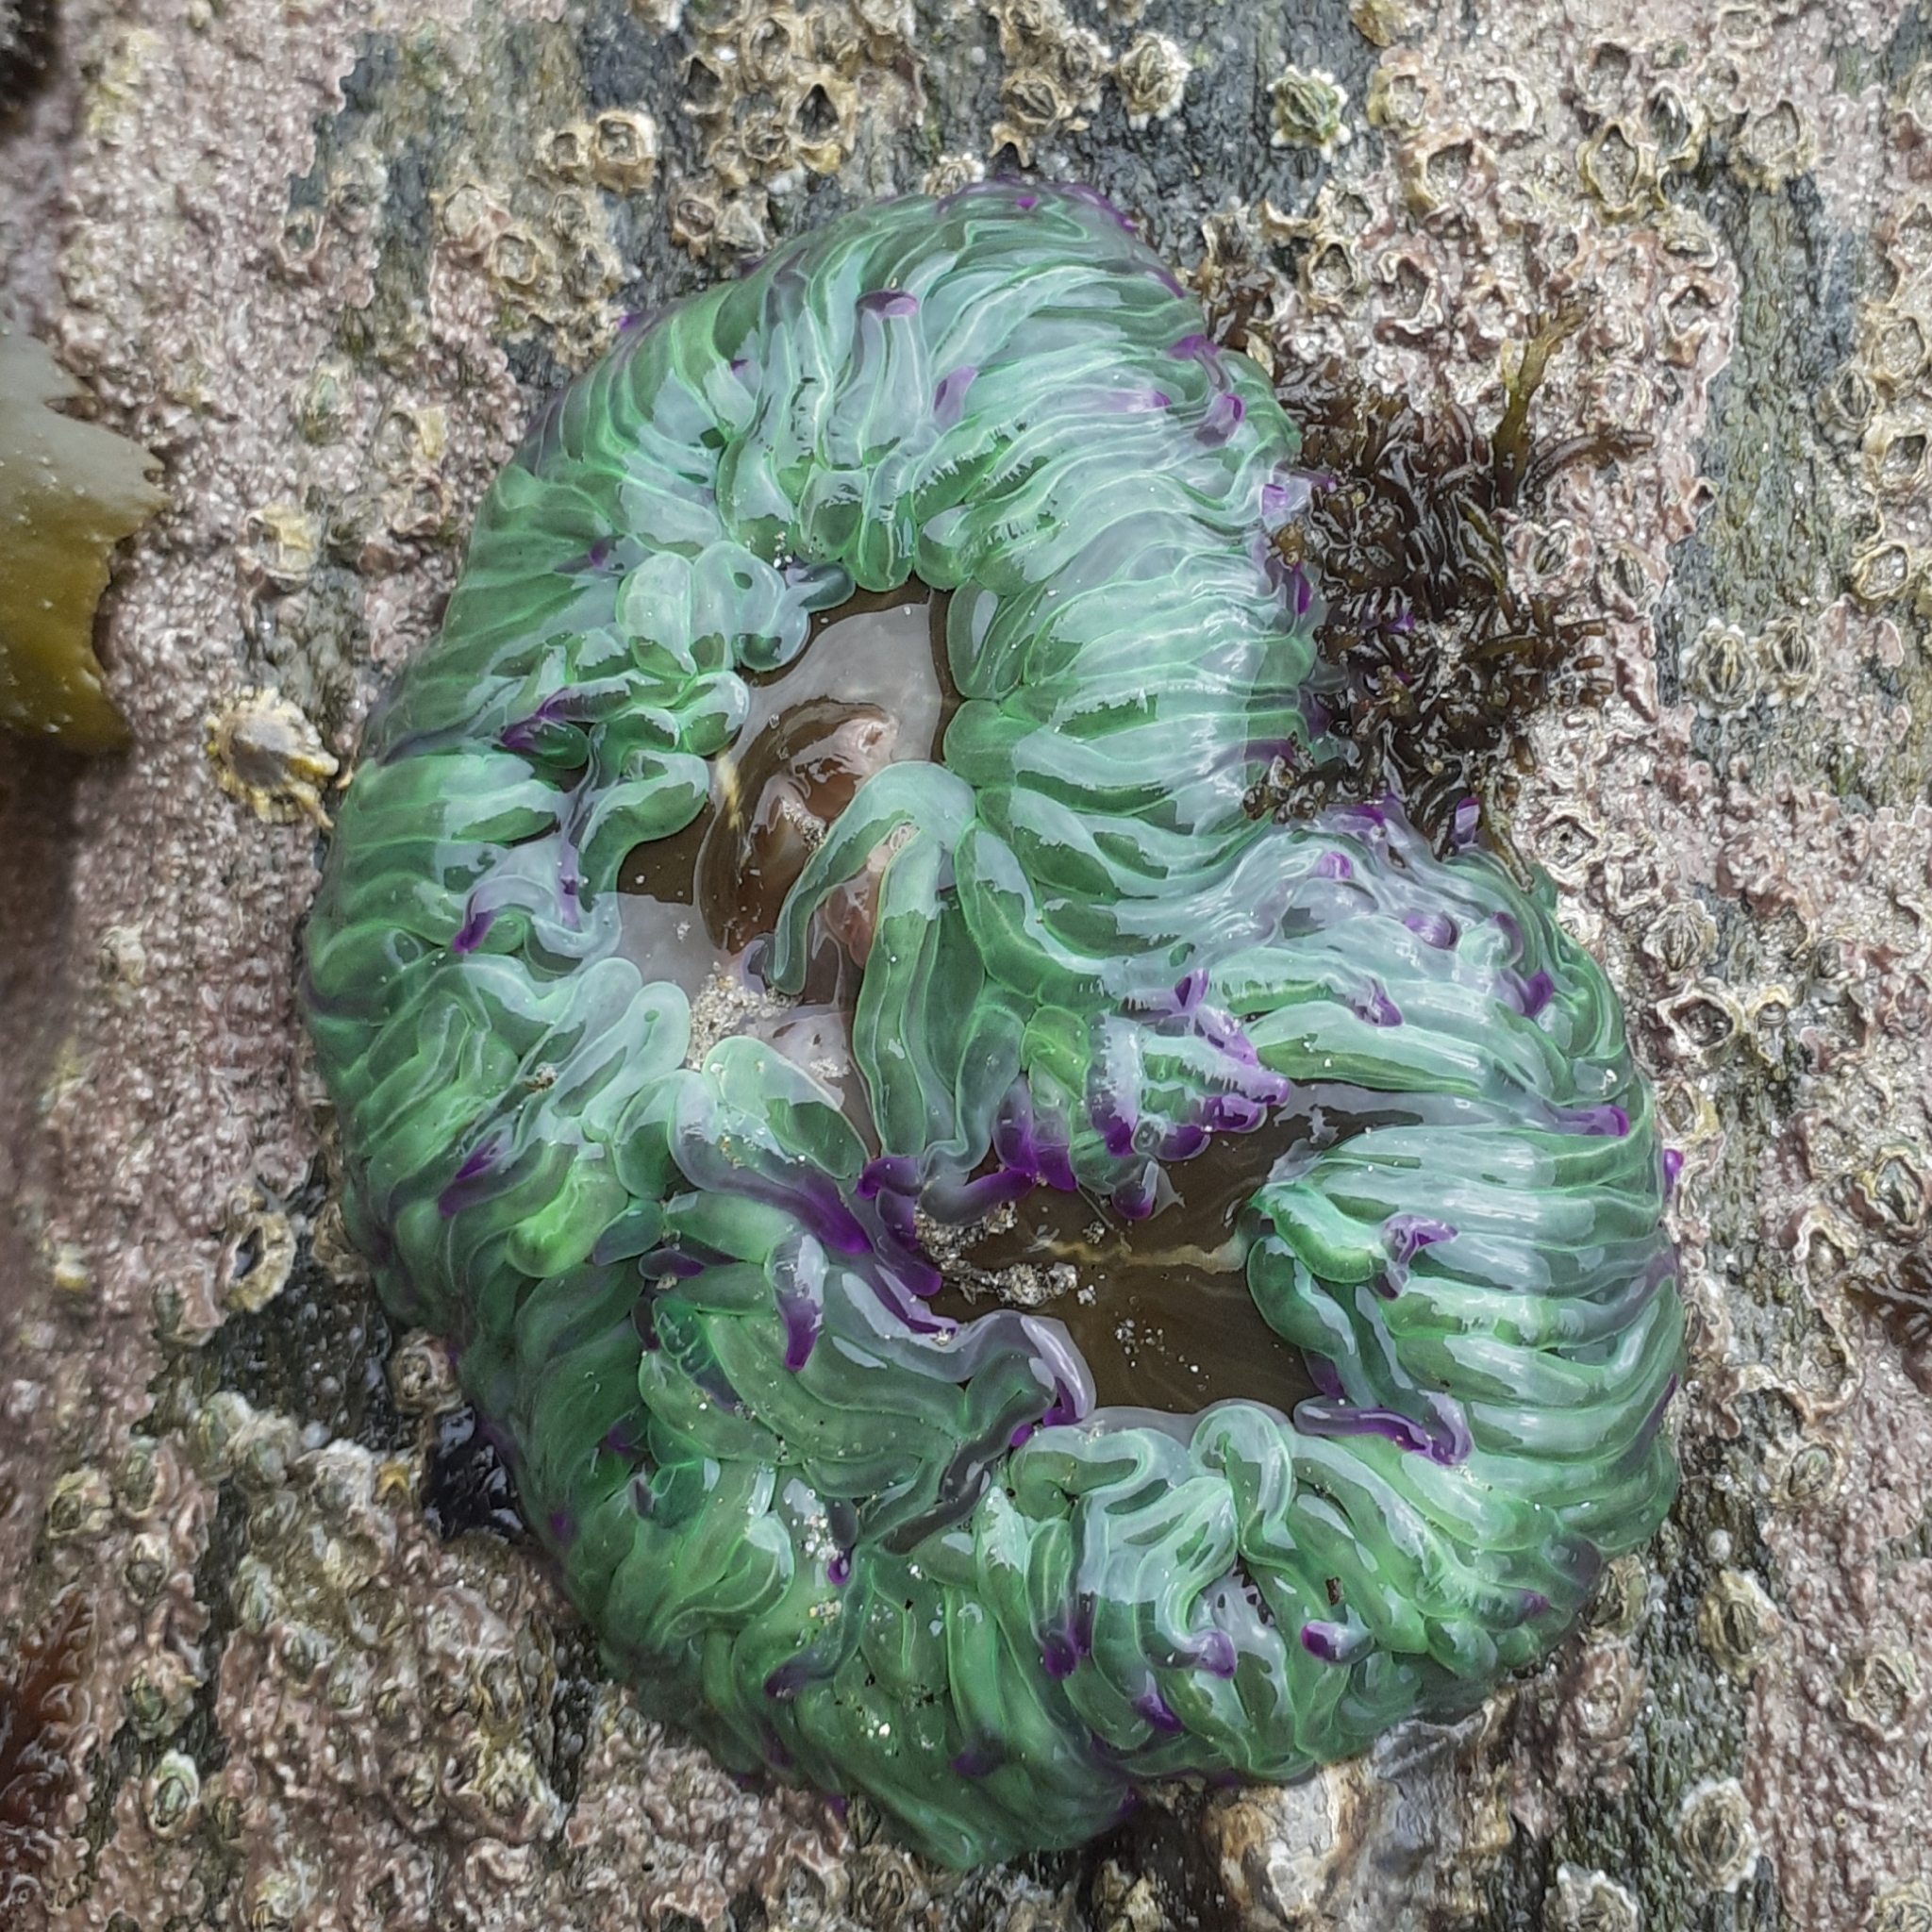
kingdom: Animalia
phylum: Cnidaria
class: Anthozoa
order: Actiniaria
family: Actiniidae
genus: Anemonia
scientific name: Anemonia viridis
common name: Snakelocks anemone
